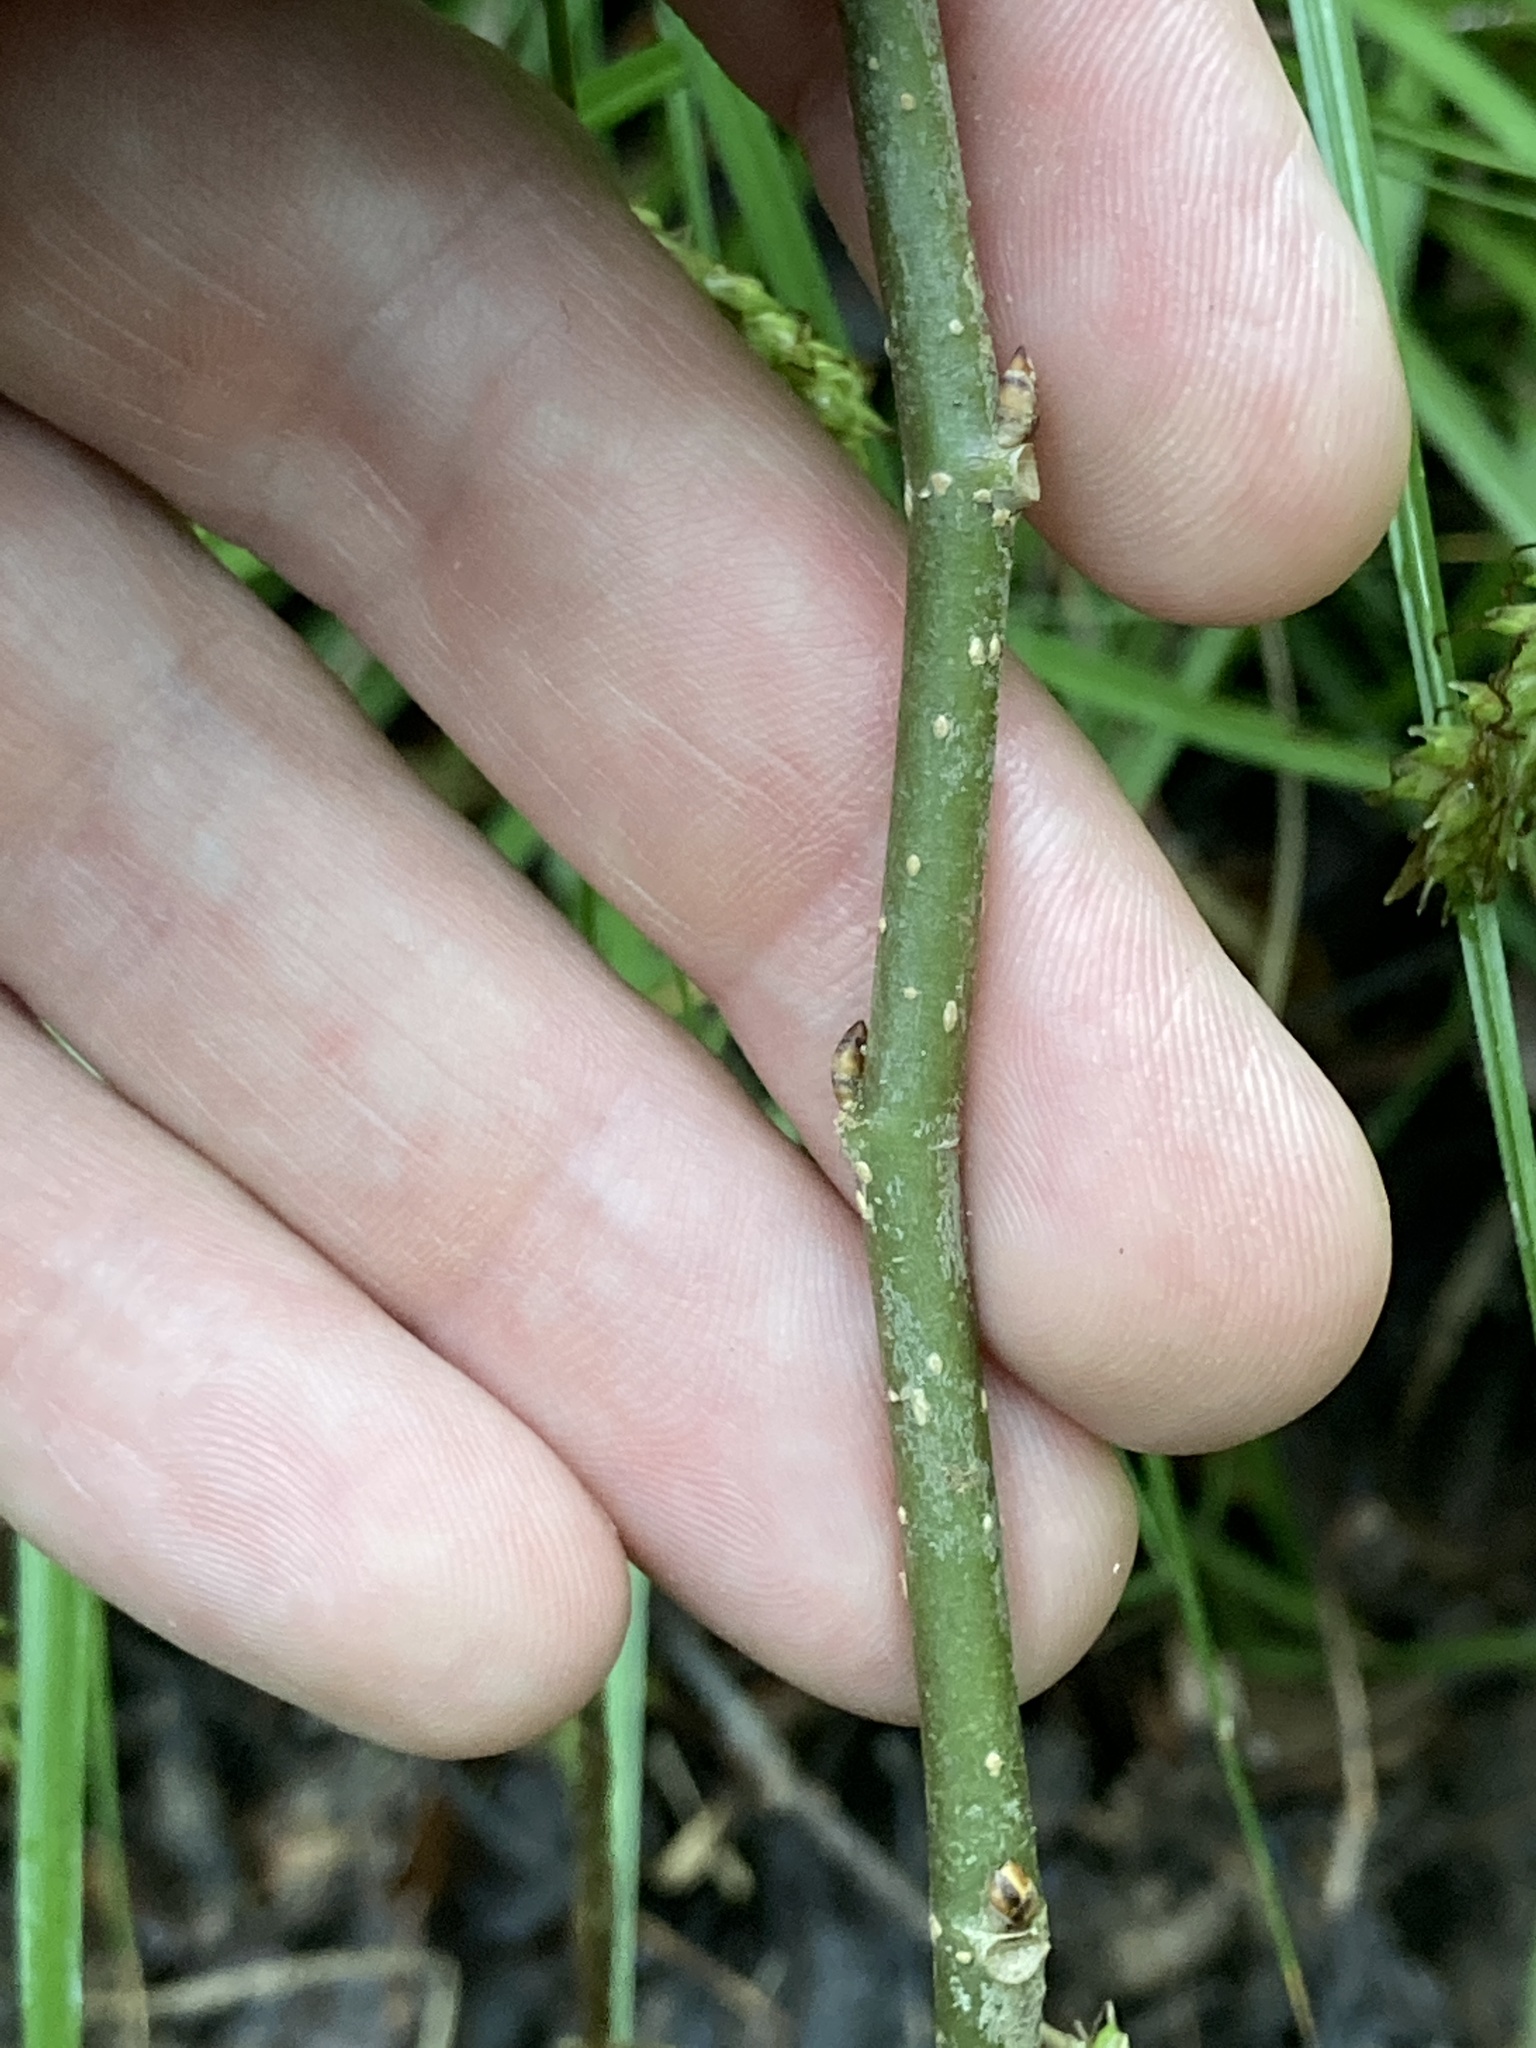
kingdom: Plantae
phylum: Tracheophyta
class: Magnoliopsida
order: Rosales
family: Moraceae
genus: Morus
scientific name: Morus rubra
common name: Red mulberry
